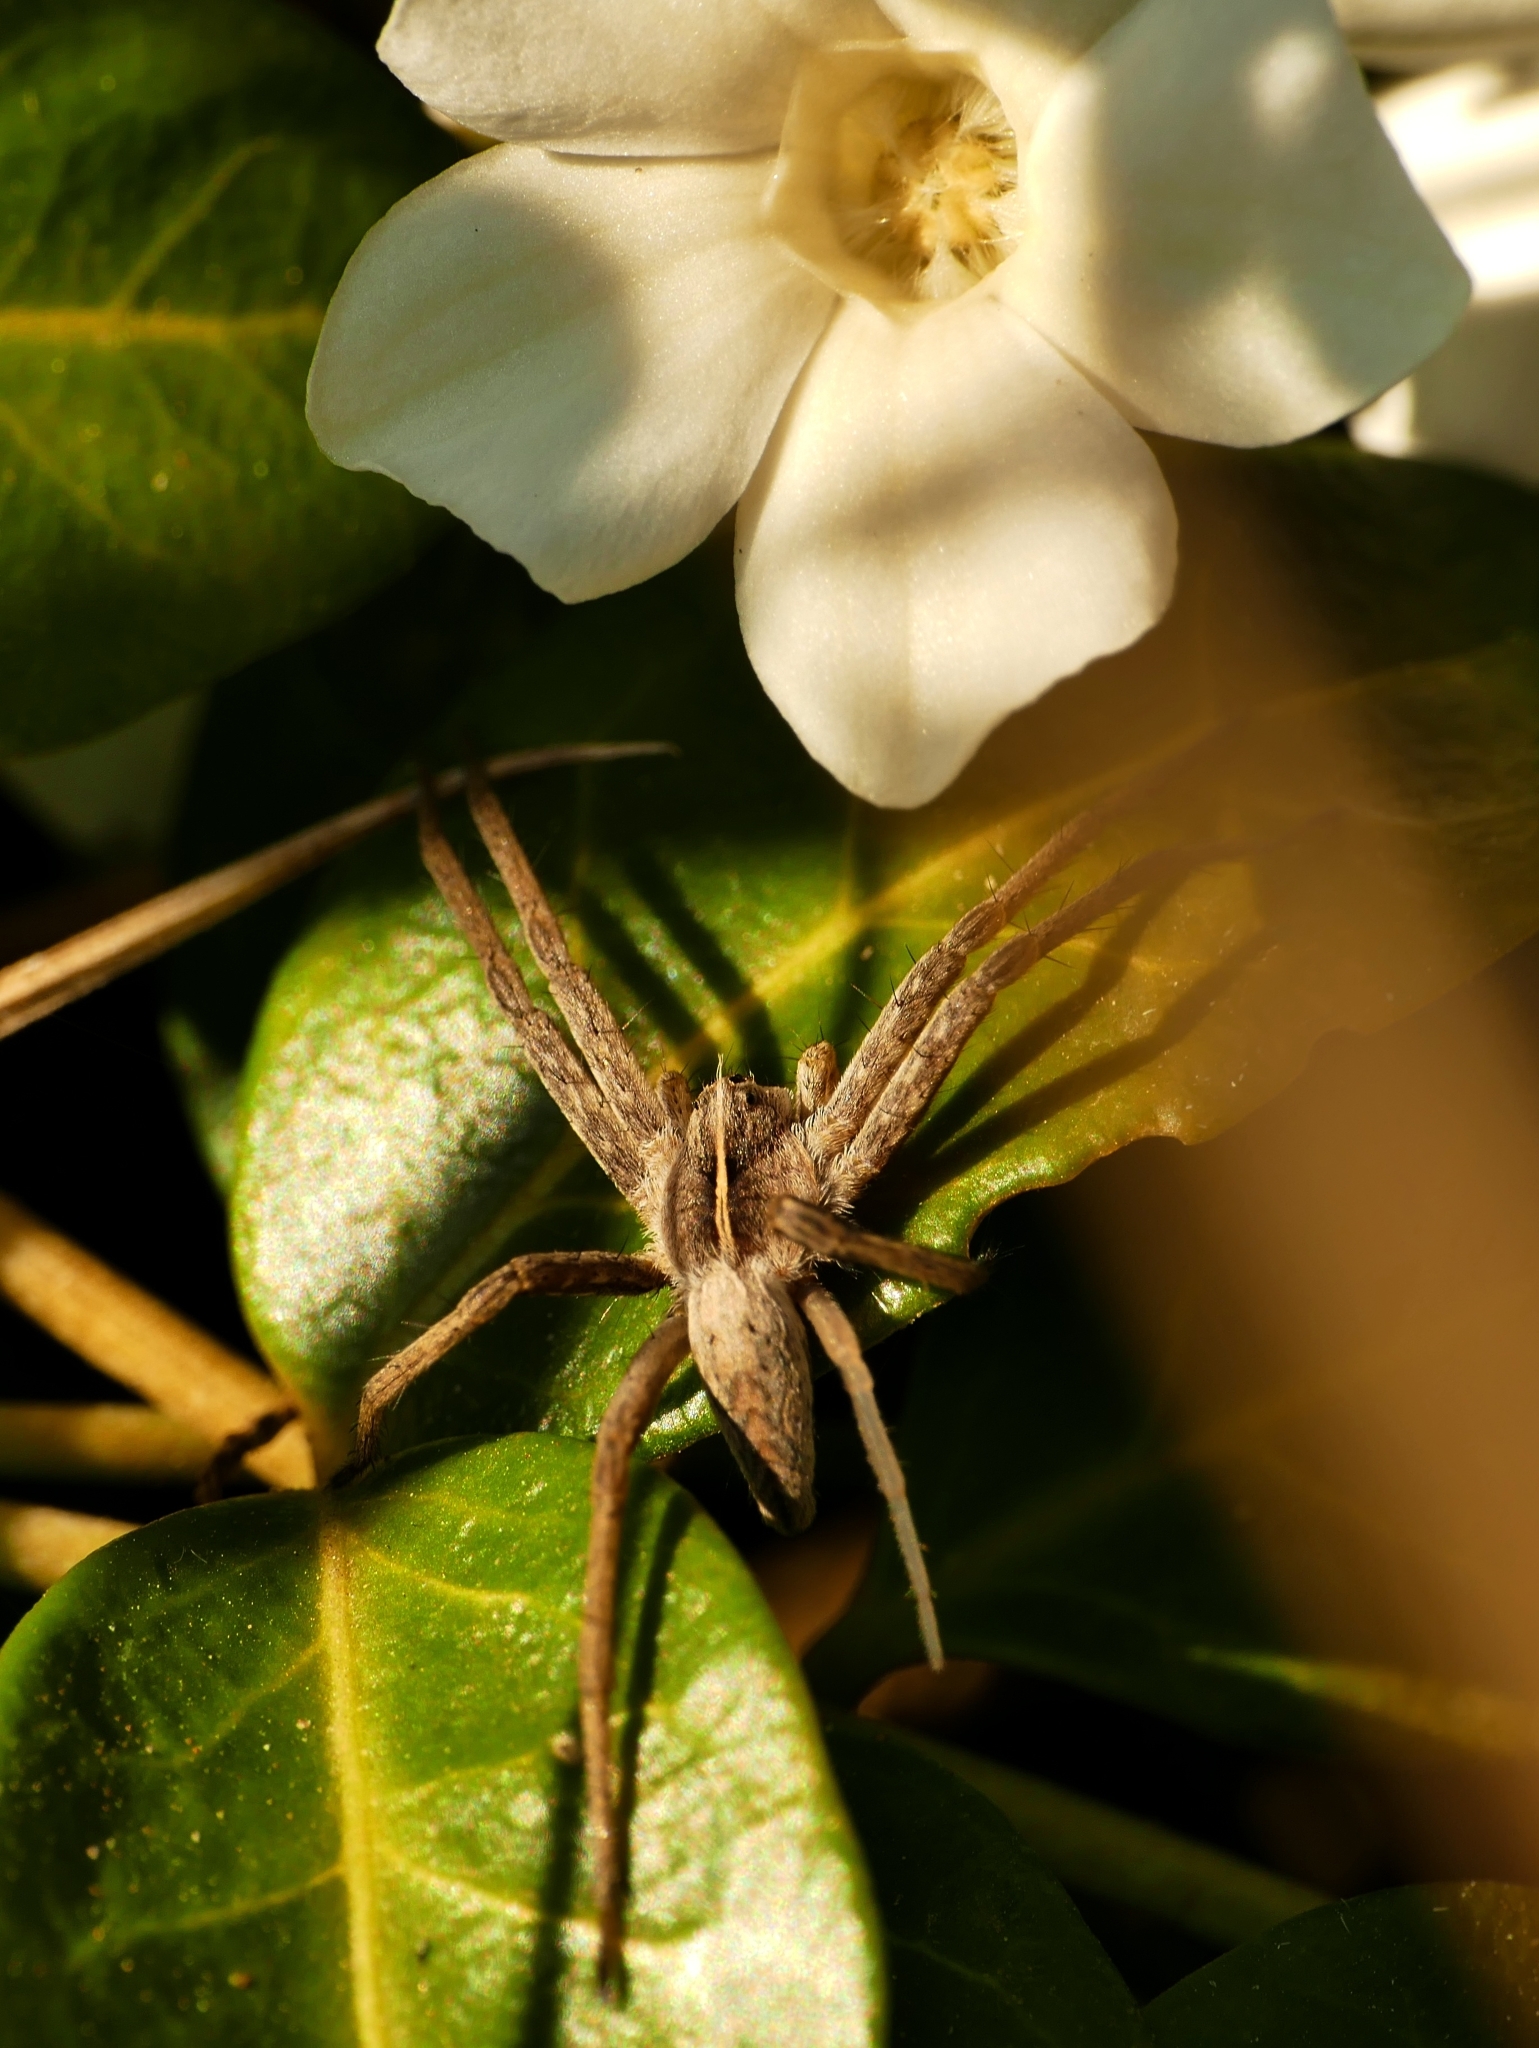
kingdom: Animalia
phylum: Arthropoda
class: Arachnida
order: Araneae
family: Pisauridae
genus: Pisaura
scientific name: Pisaura mirabilis
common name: Tent spider
